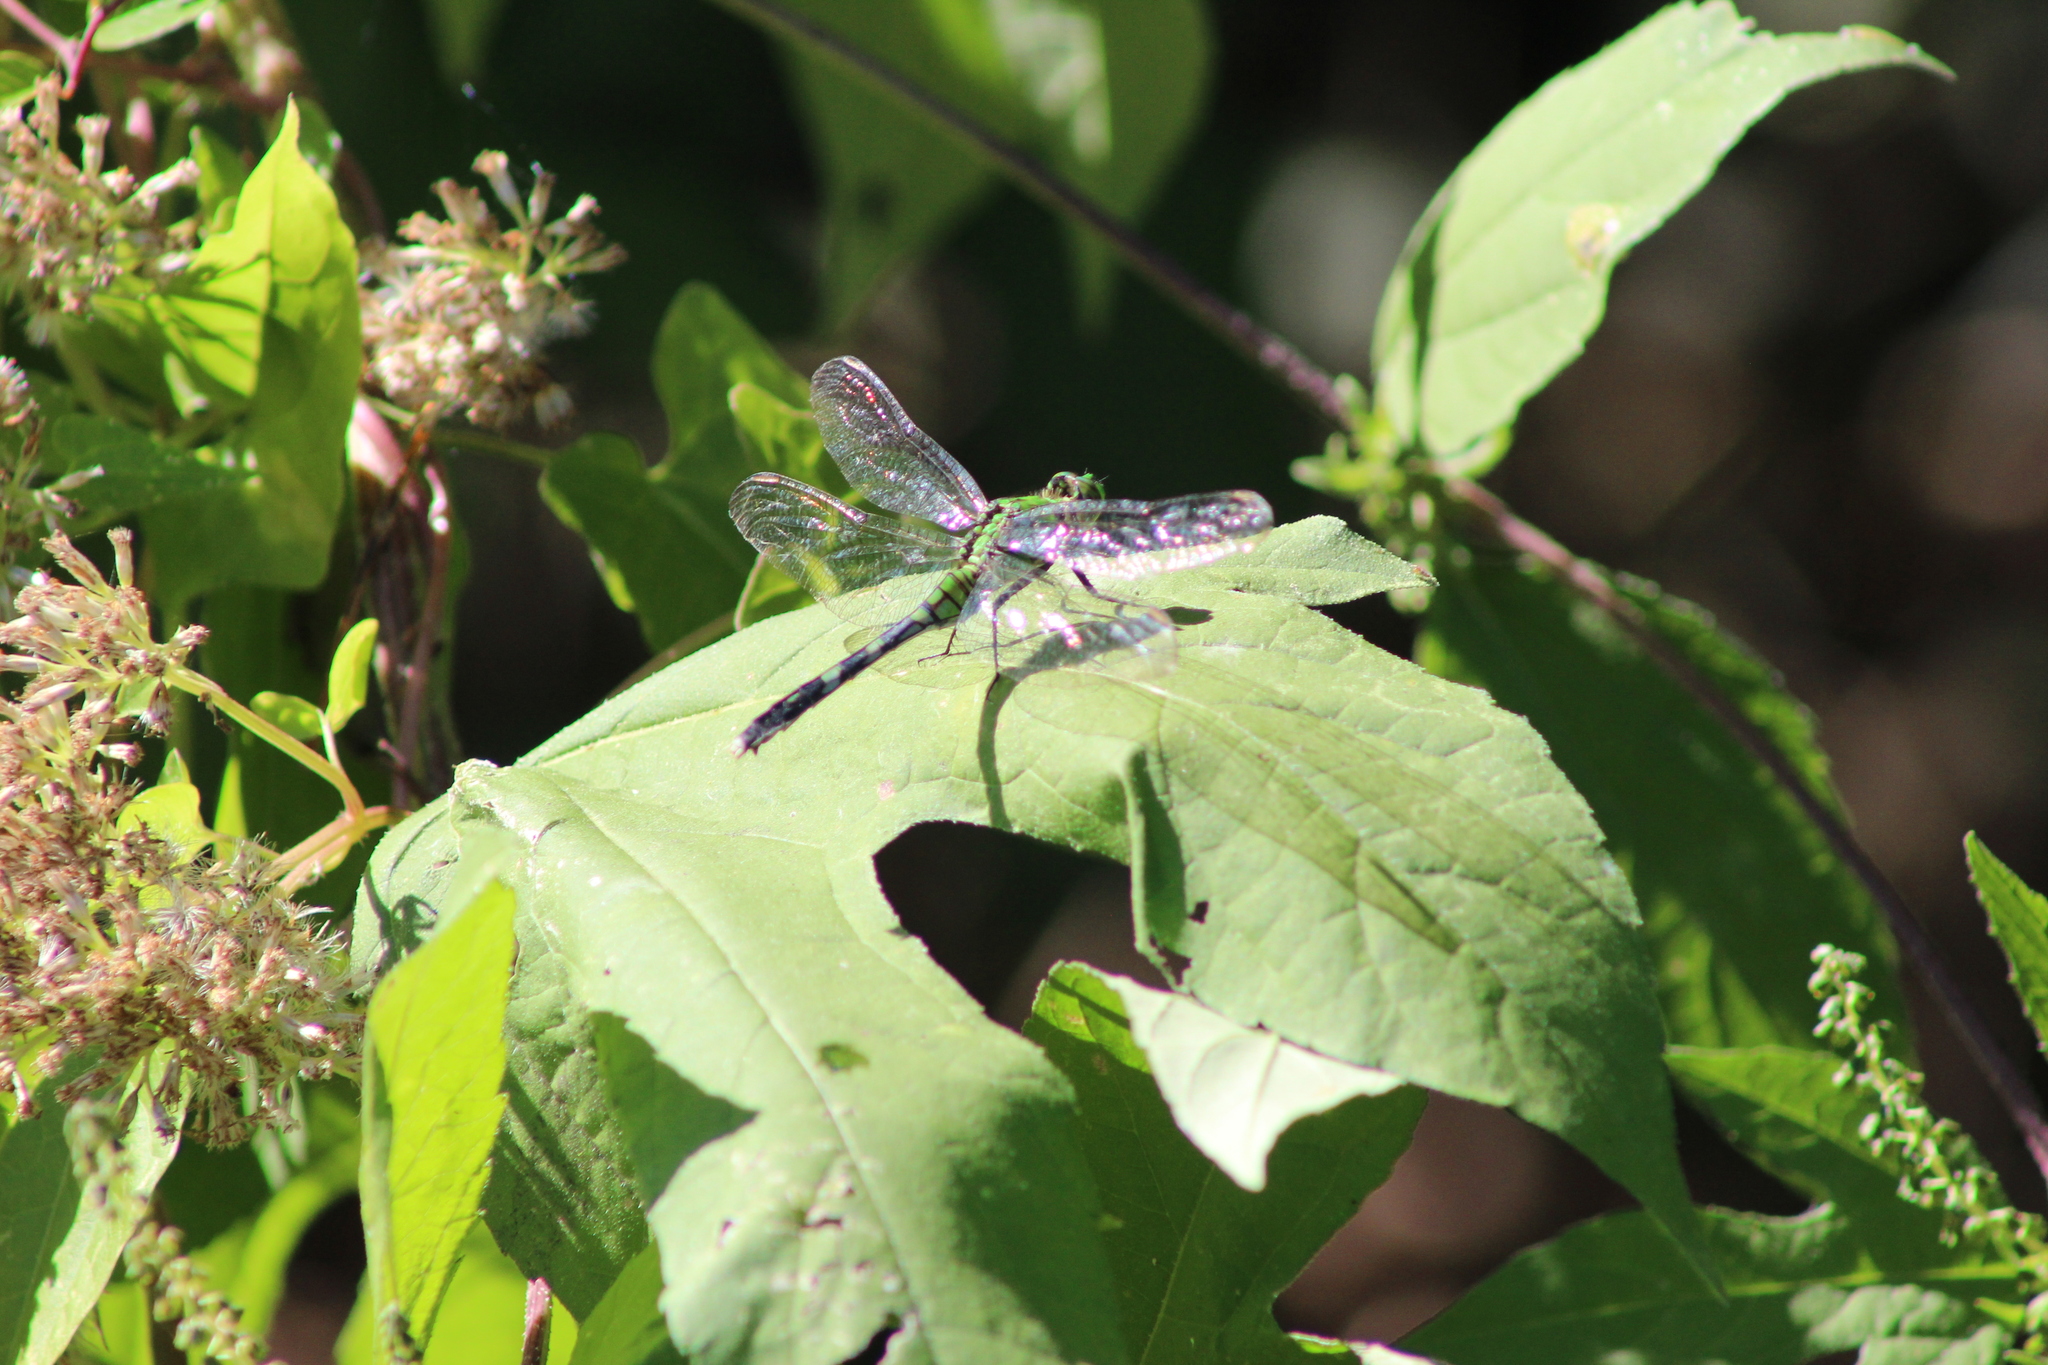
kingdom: Animalia
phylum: Arthropoda
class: Insecta
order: Odonata
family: Libellulidae
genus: Erythemis
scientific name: Erythemis simplicicollis
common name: Eastern pondhawk
